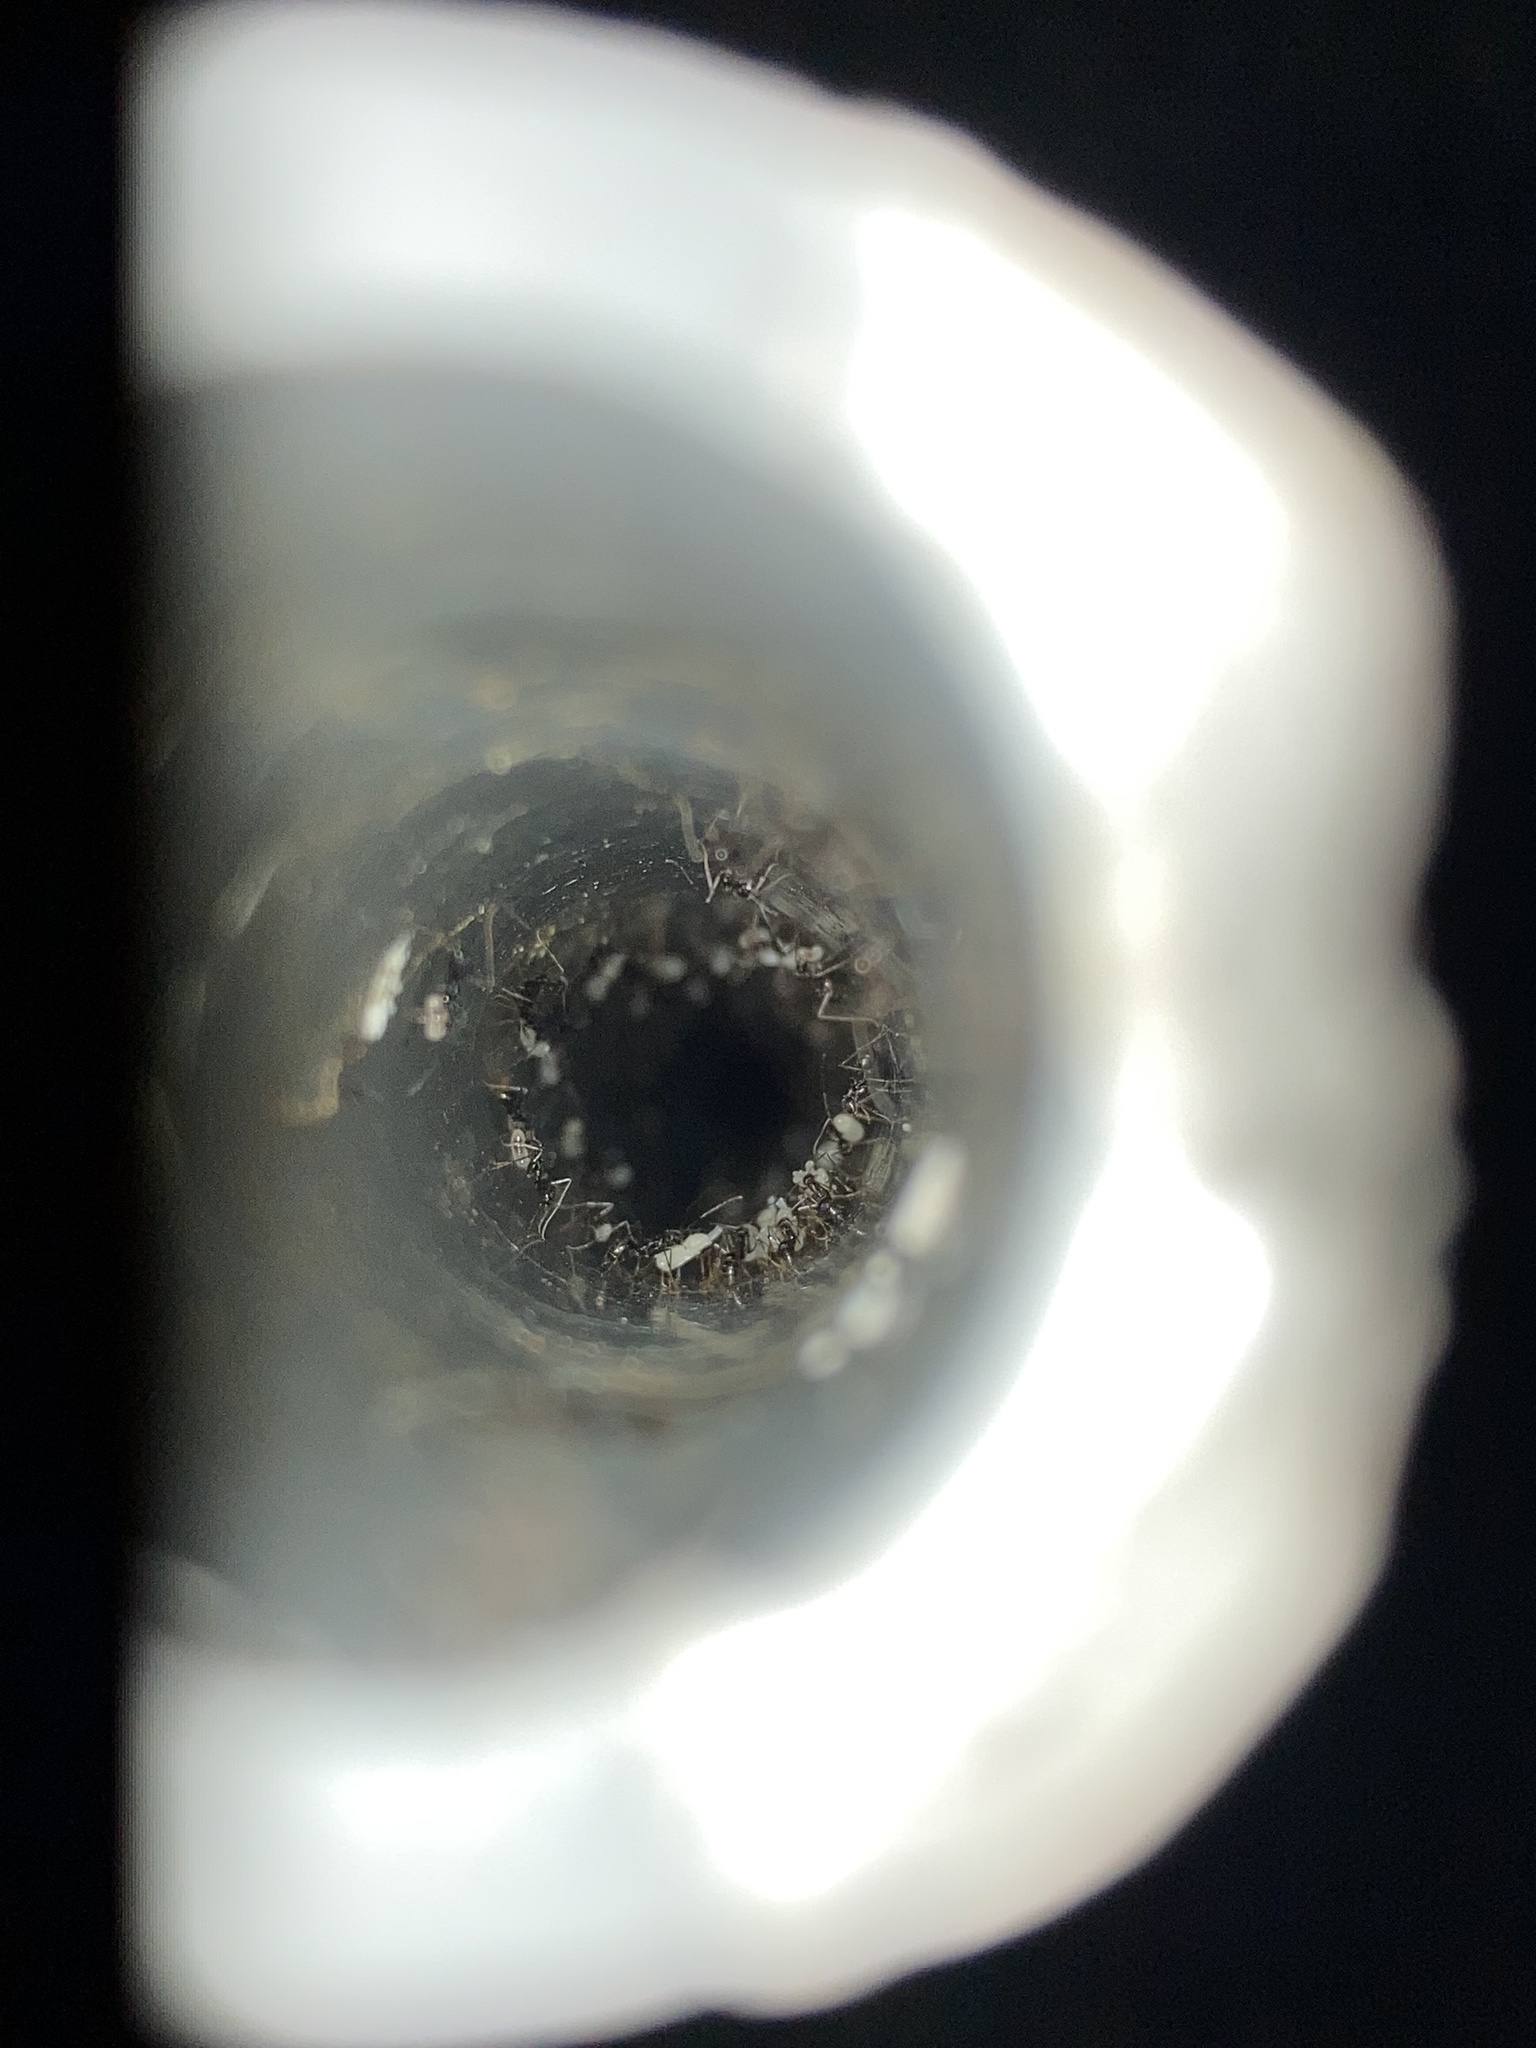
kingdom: Animalia
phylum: Arthropoda
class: Insecta
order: Hymenoptera
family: Formicidae
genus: Paratrechina
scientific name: Paratrechina longicornis
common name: Longhorned crazy ant
